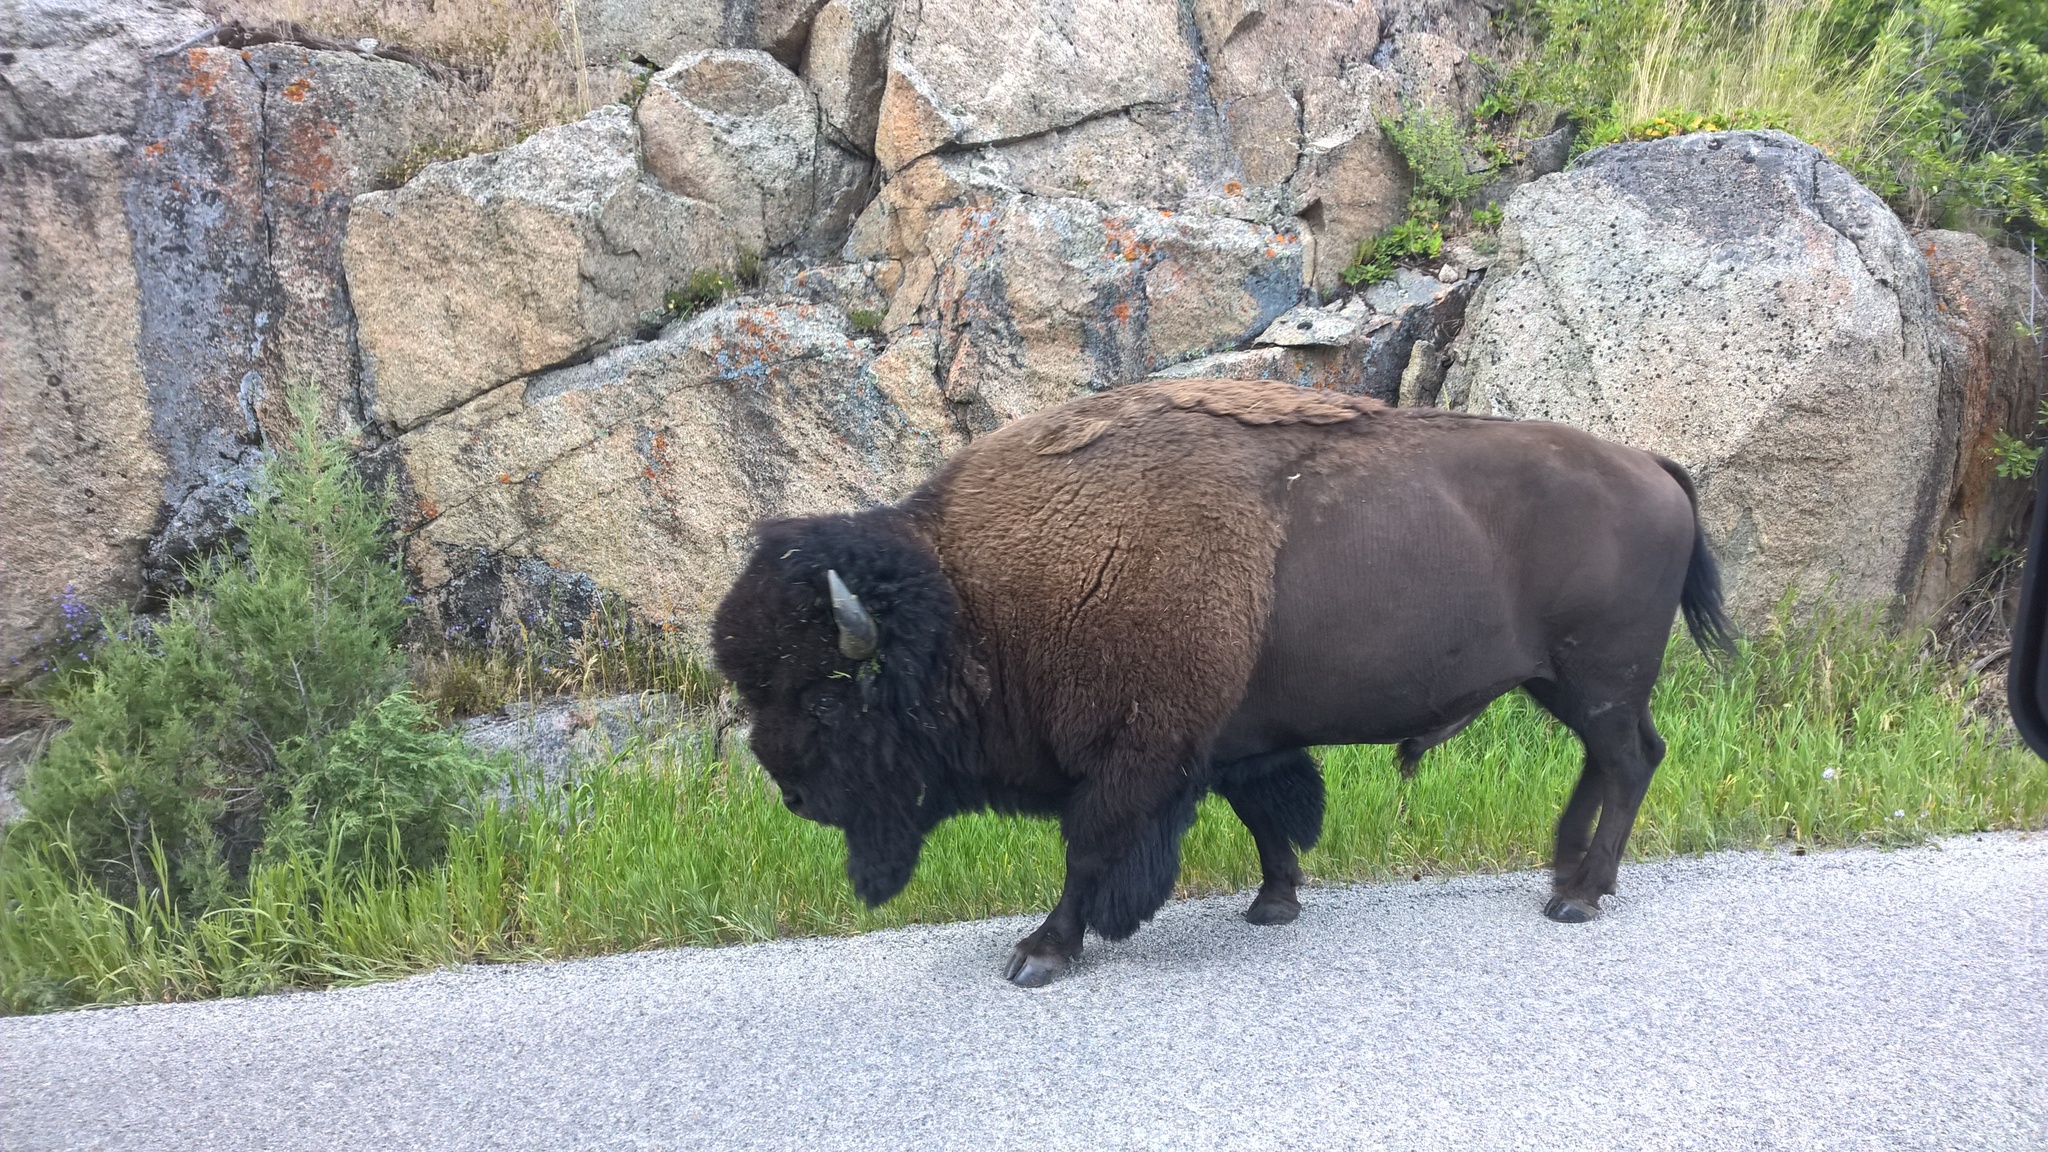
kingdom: Animalia
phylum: Chordata
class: Mammalia
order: Artiodactyla
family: Bovidae
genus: Bison
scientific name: Bison bison
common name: American bison
